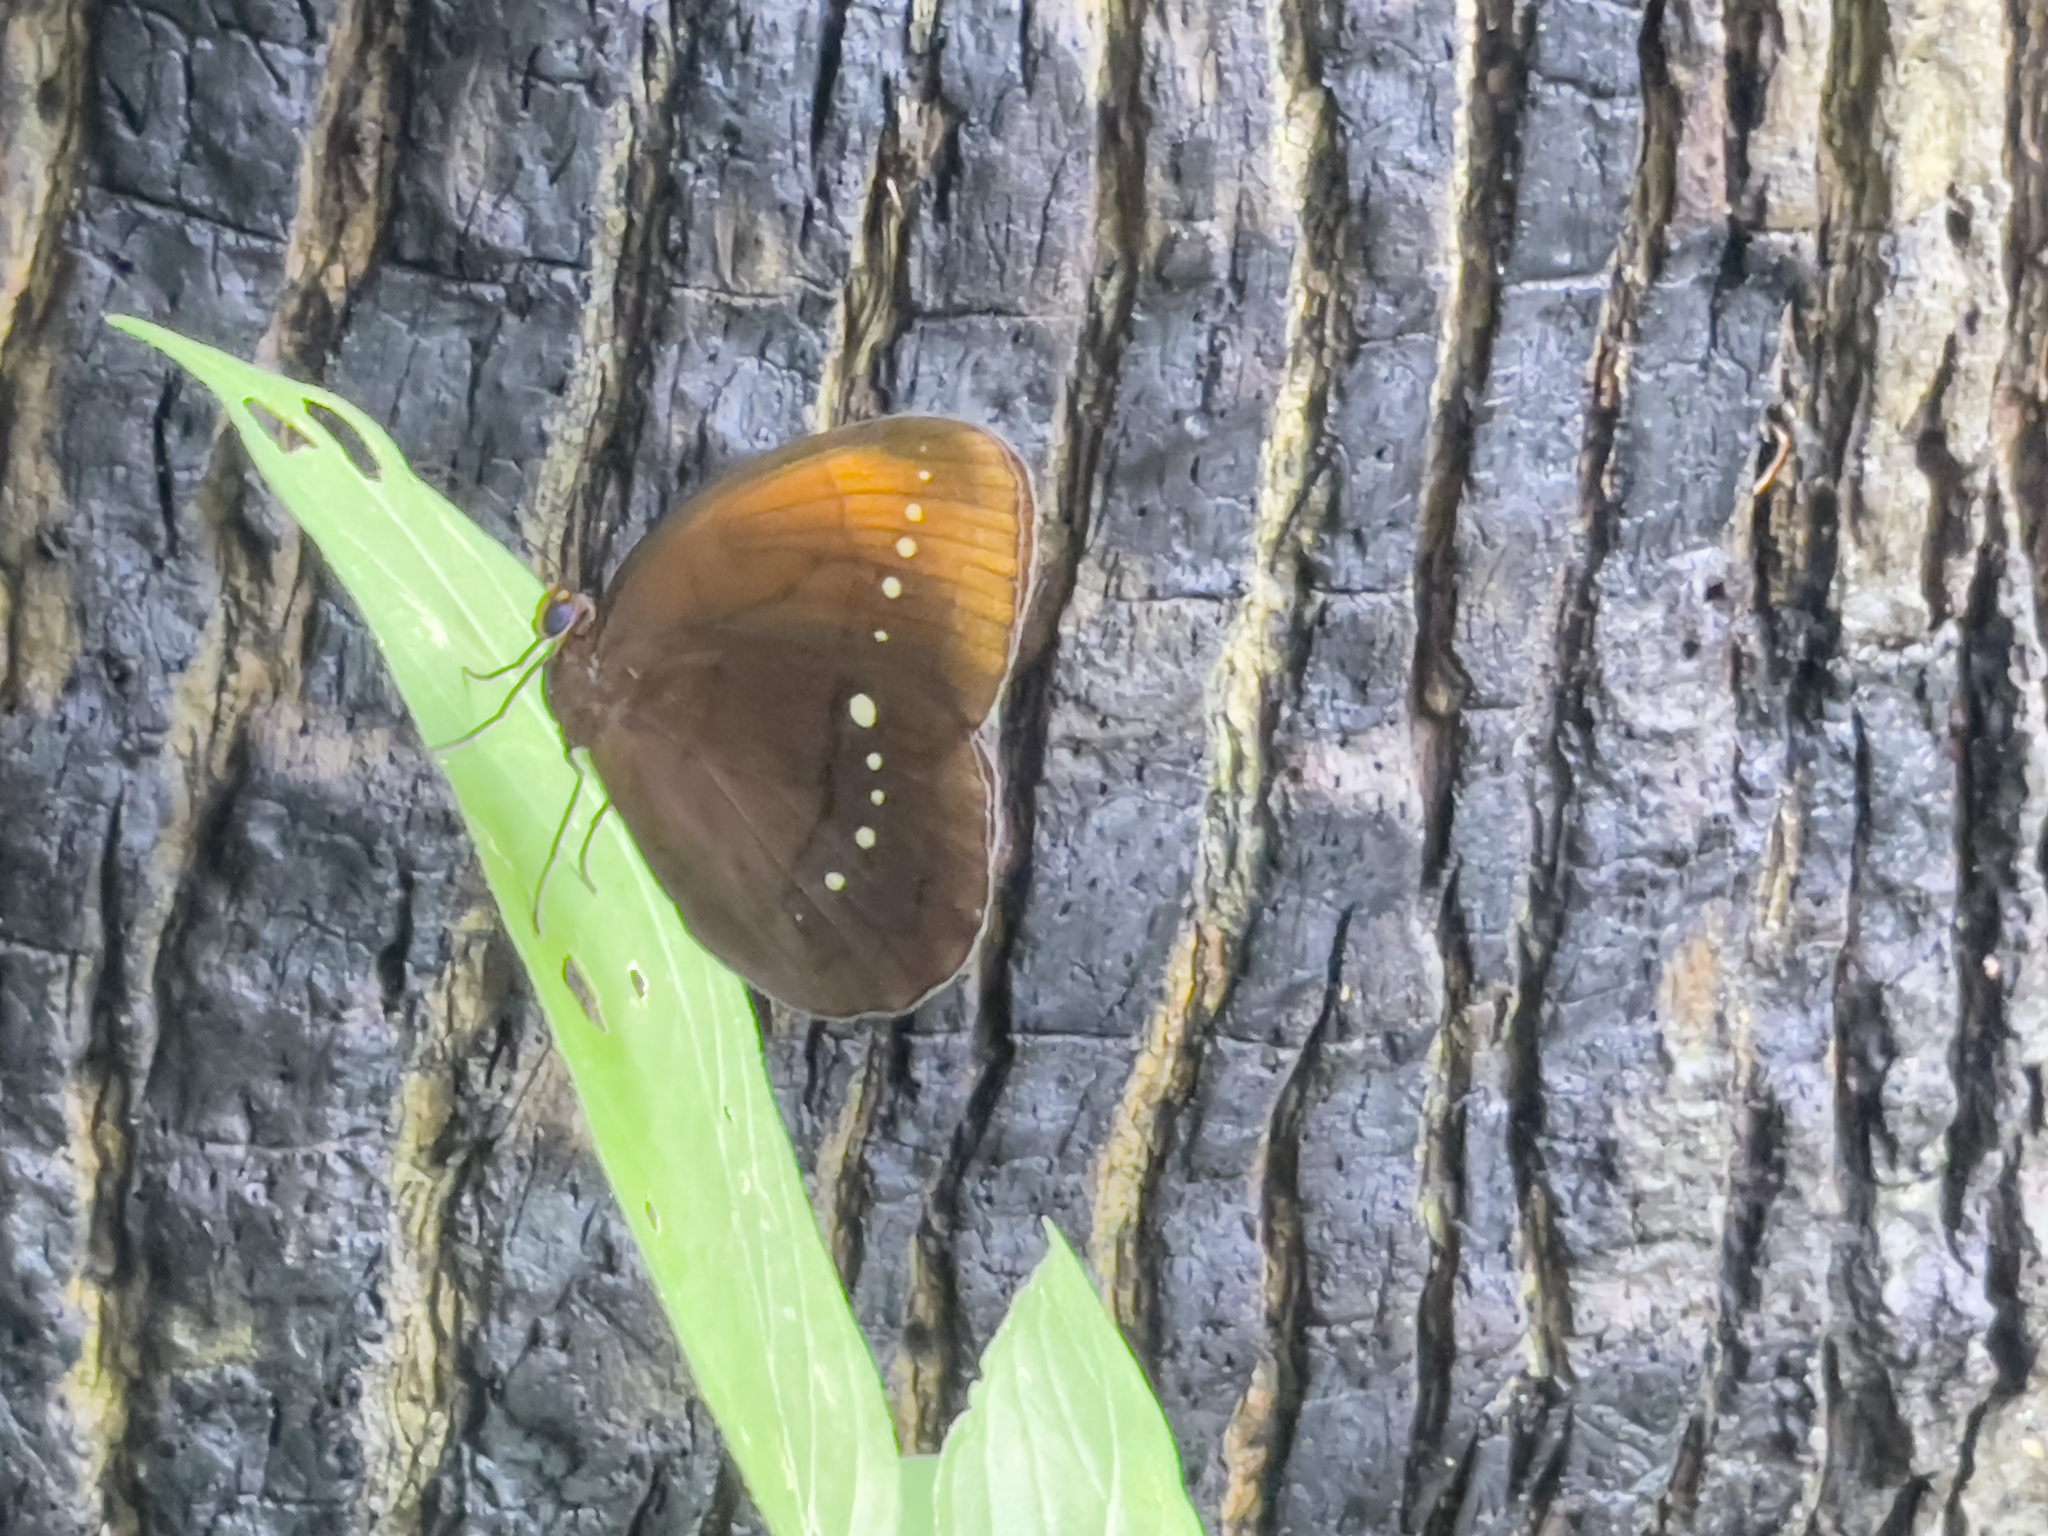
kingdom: Animalia
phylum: Arthropoda
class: Insecta
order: Lepidoptera
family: Nymphalidae
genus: Faunis
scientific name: Faunis eumeus
